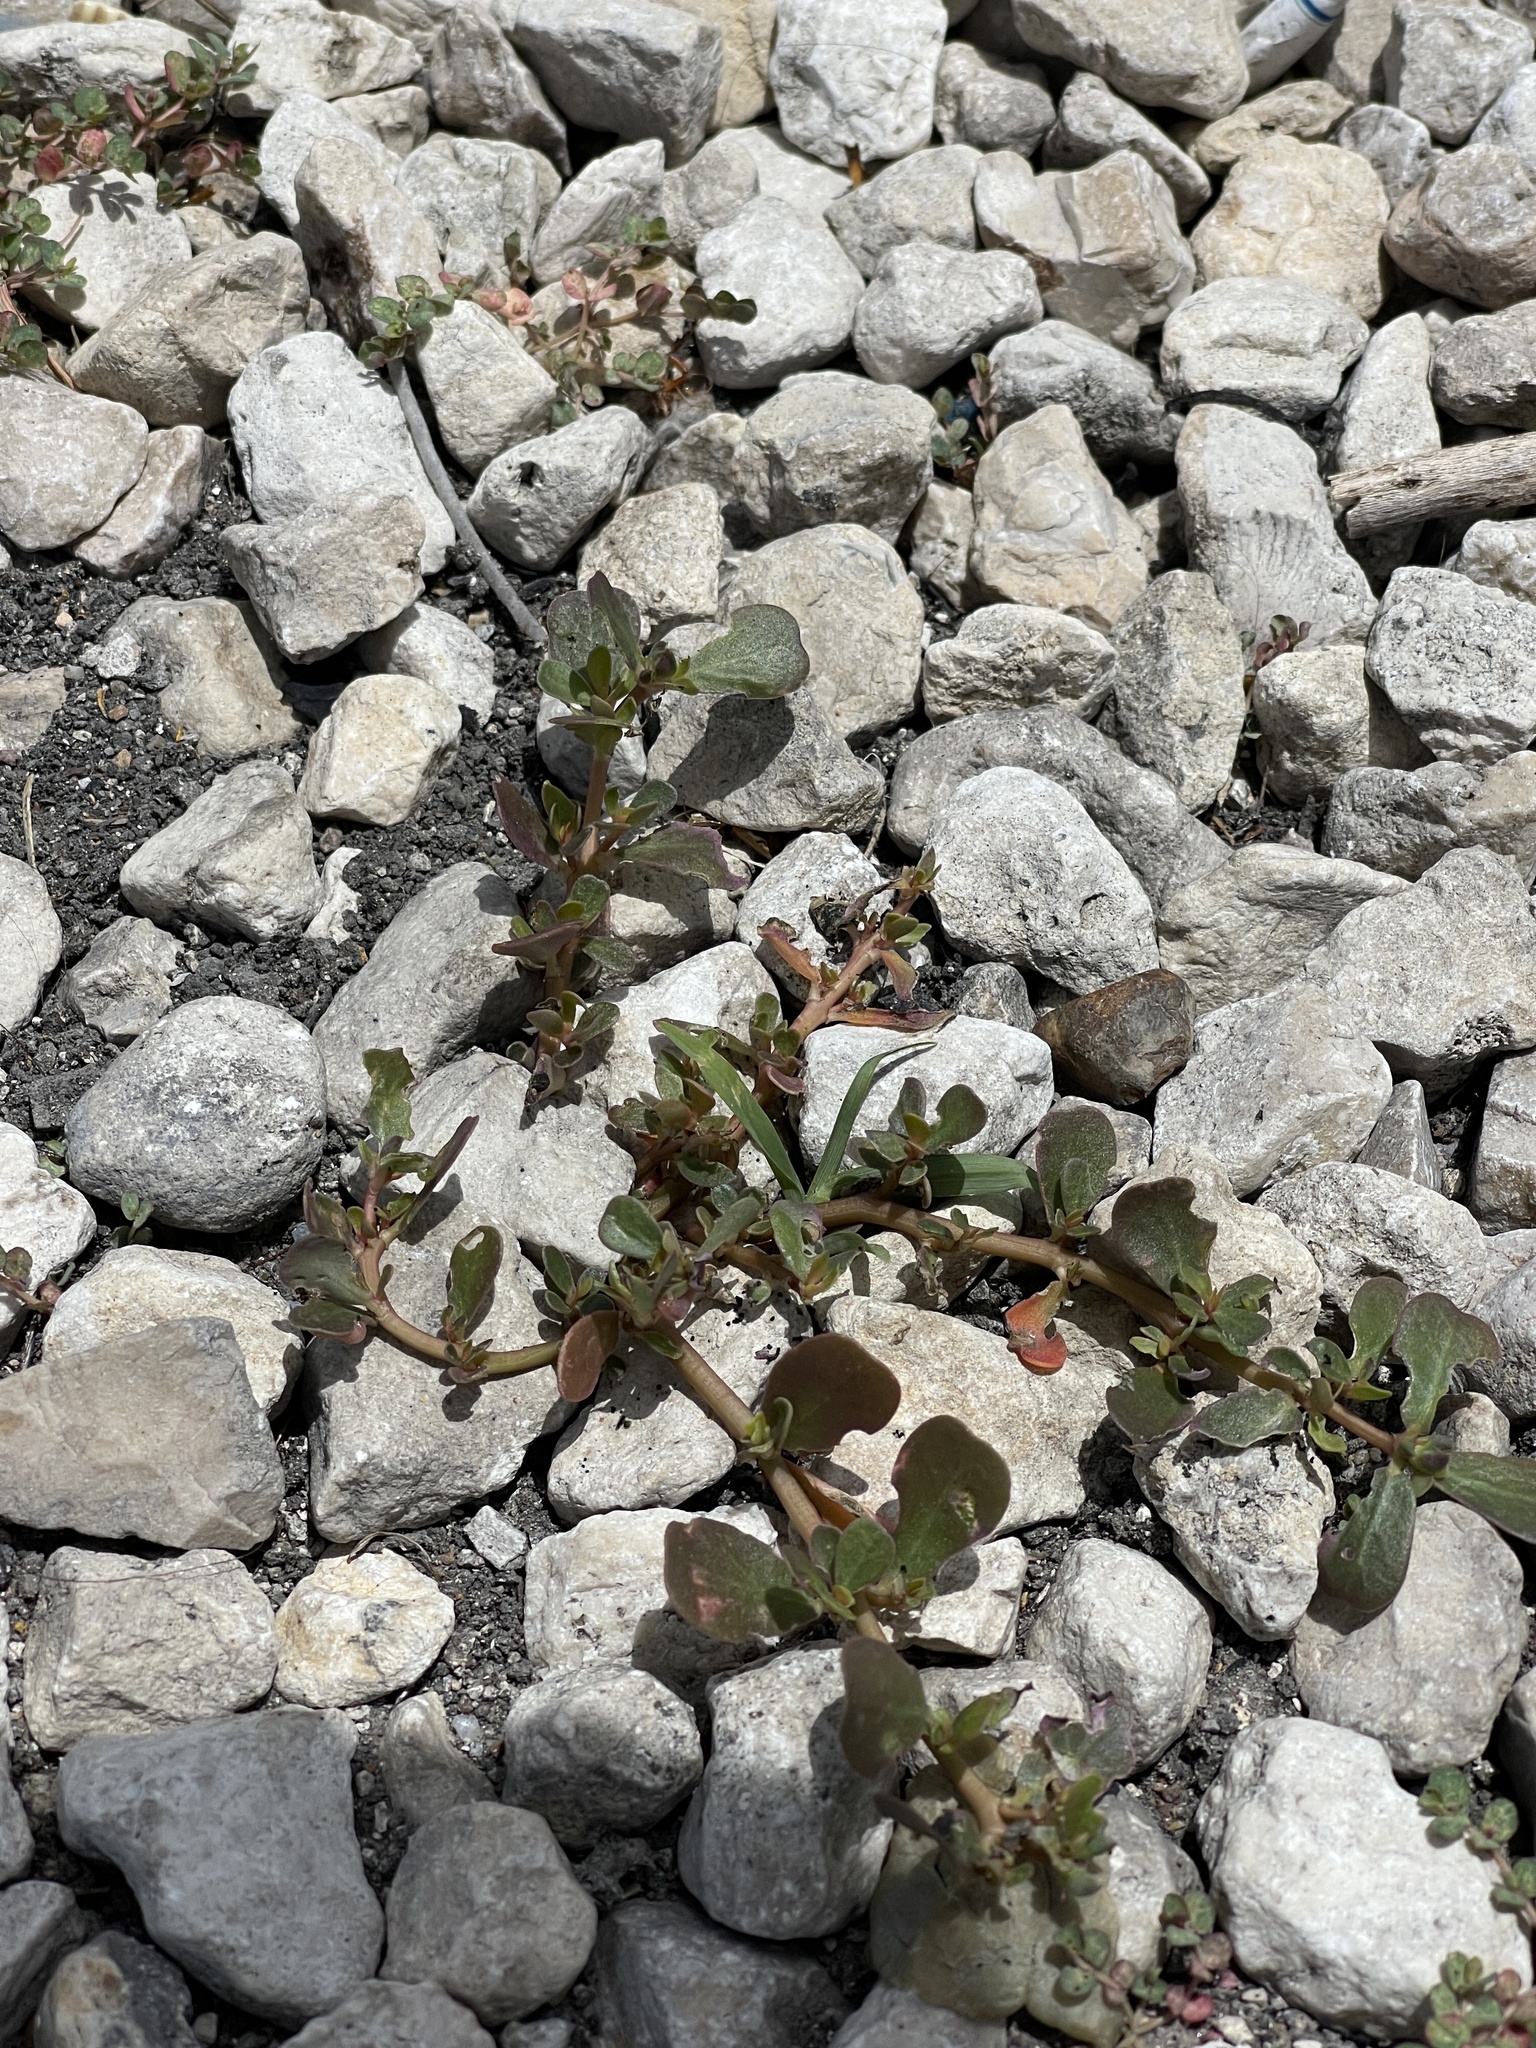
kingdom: Plantae
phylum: Tracheophyta
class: Magnoliopsida
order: Caryophyllales
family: Portulacaceae
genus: Portulaca
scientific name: Portulaca oleracea
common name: Common purslane
